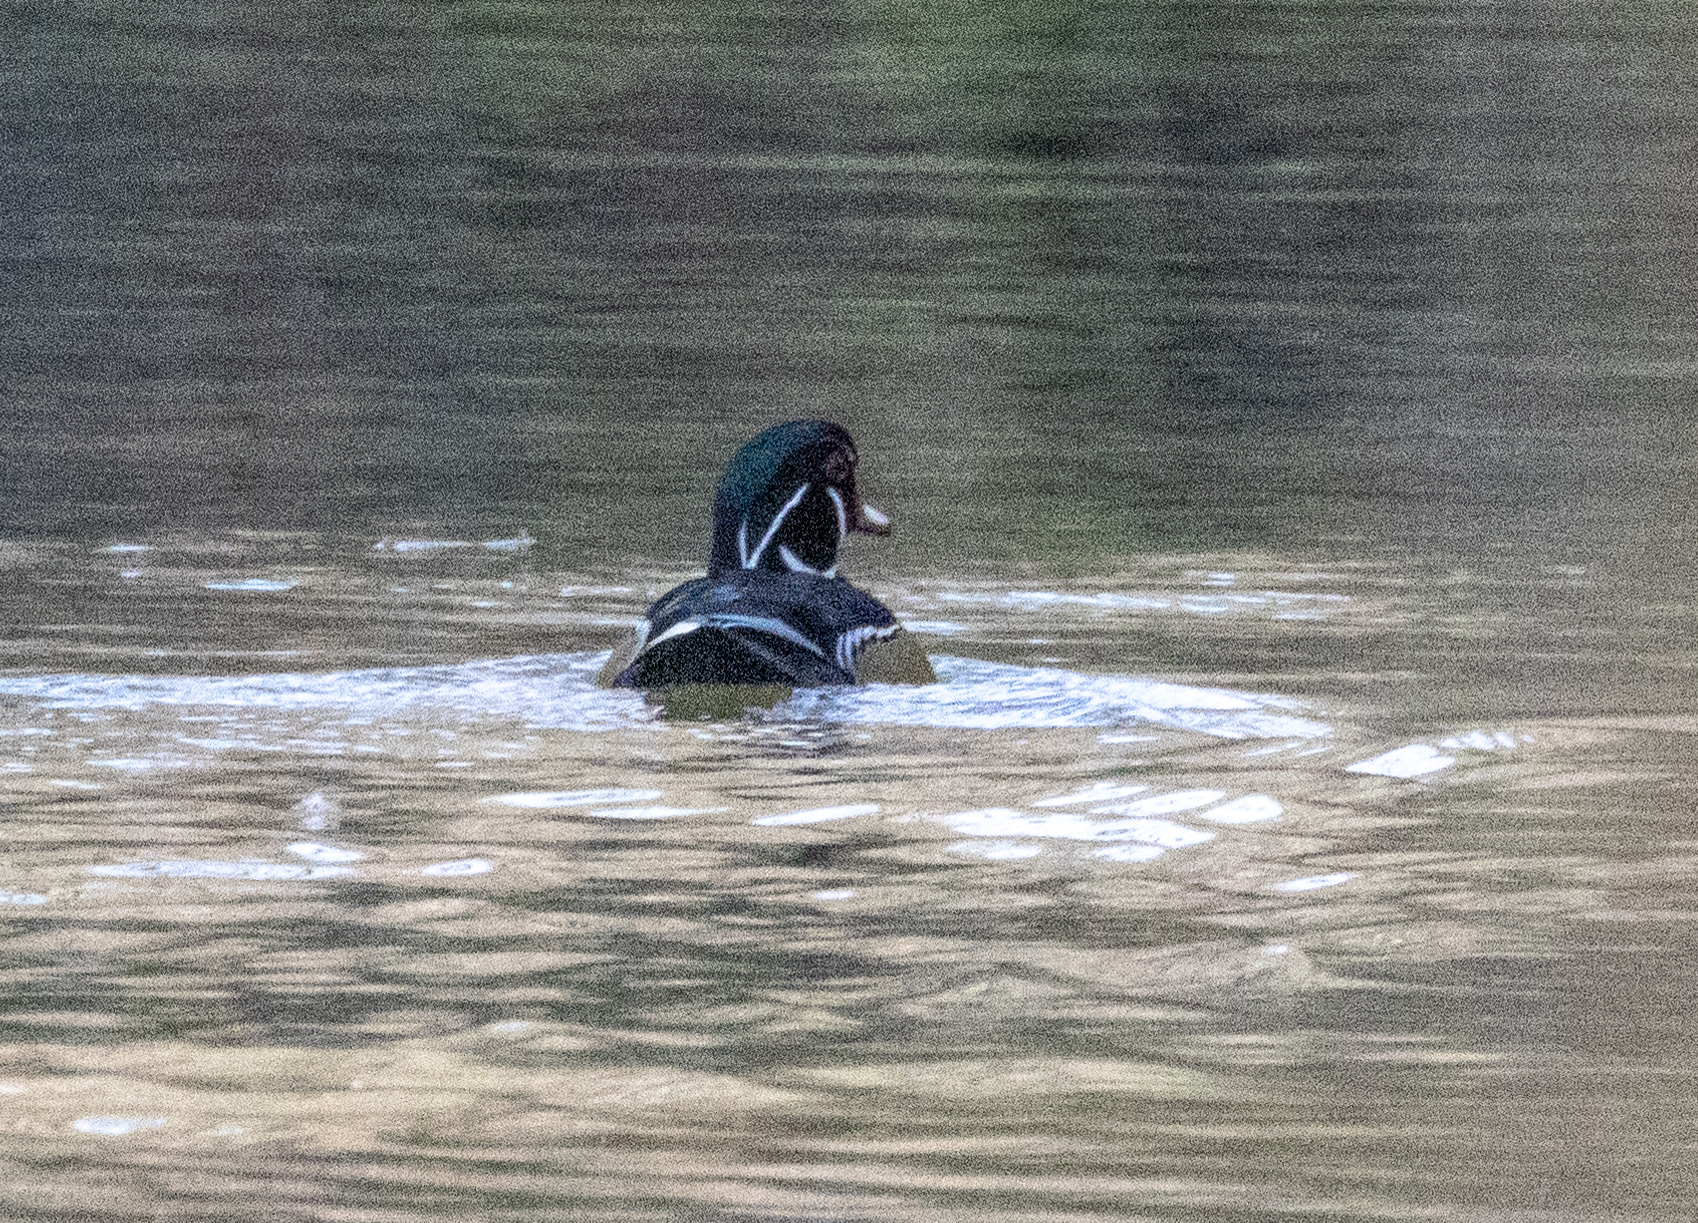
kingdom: Animalia
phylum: Chordata
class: Aves
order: Anseriformes
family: Anatidae
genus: Aix
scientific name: Aix sponsa
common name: Wood duck
